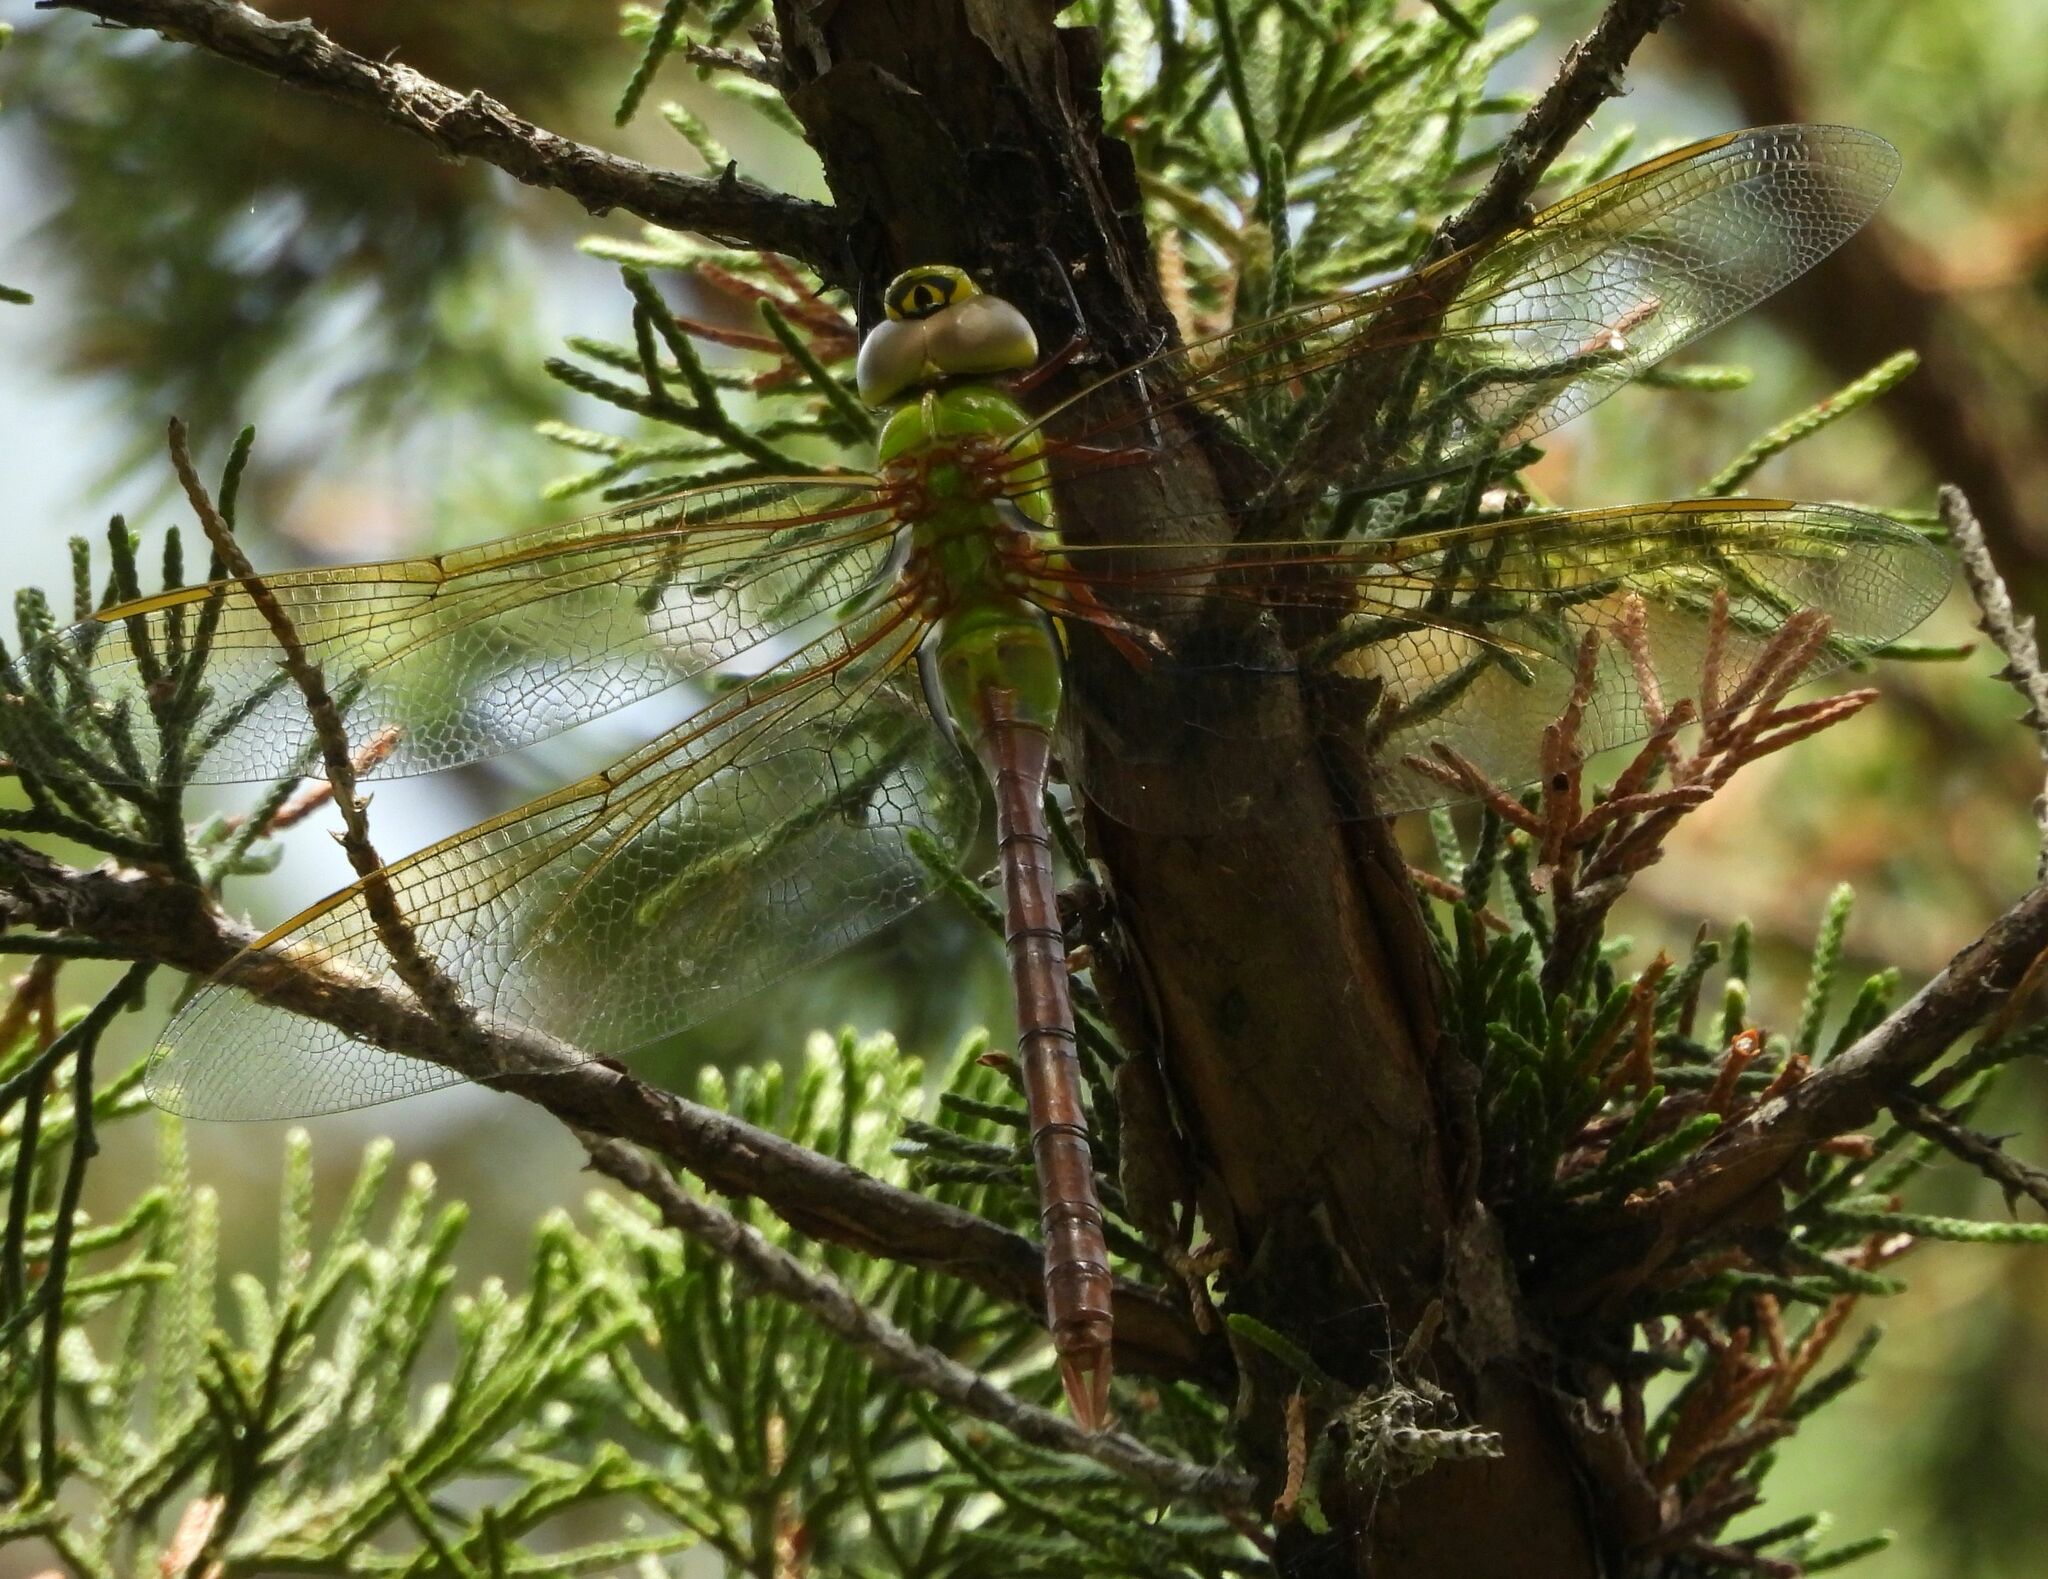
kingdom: Animalia
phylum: Arthropoda
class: Insecta
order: Odonata
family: Aeshnidae
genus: Anax
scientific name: Anax junius
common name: Common green darner
